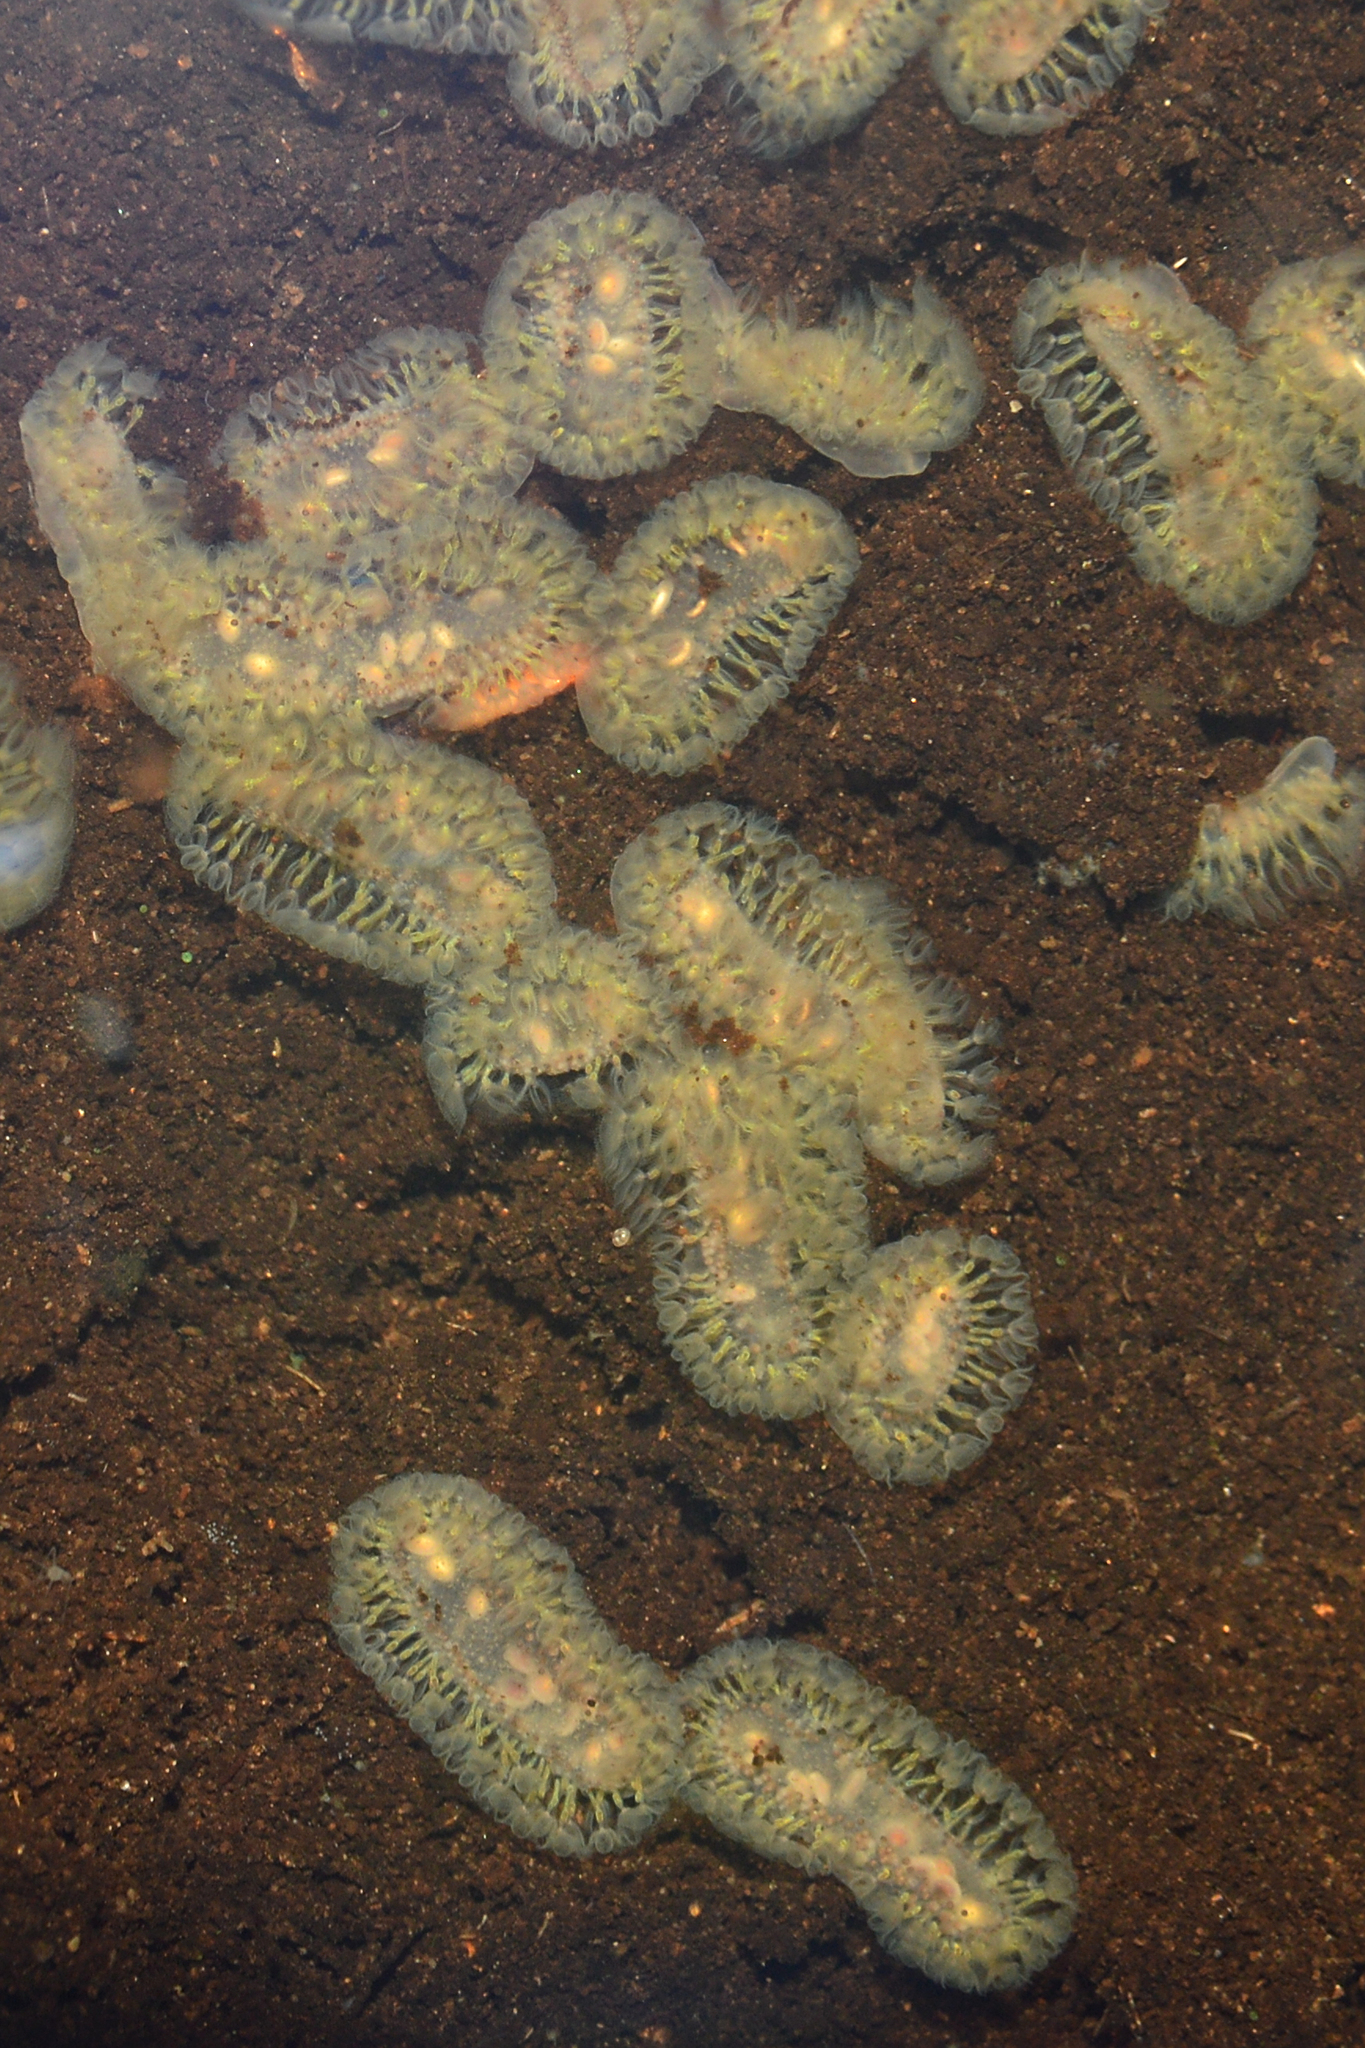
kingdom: Animalia
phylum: Bryozoa
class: Phylactolaemata
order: Plumatellida
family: Cristatellidae
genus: Cristatella
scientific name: Cristatella mucedo
